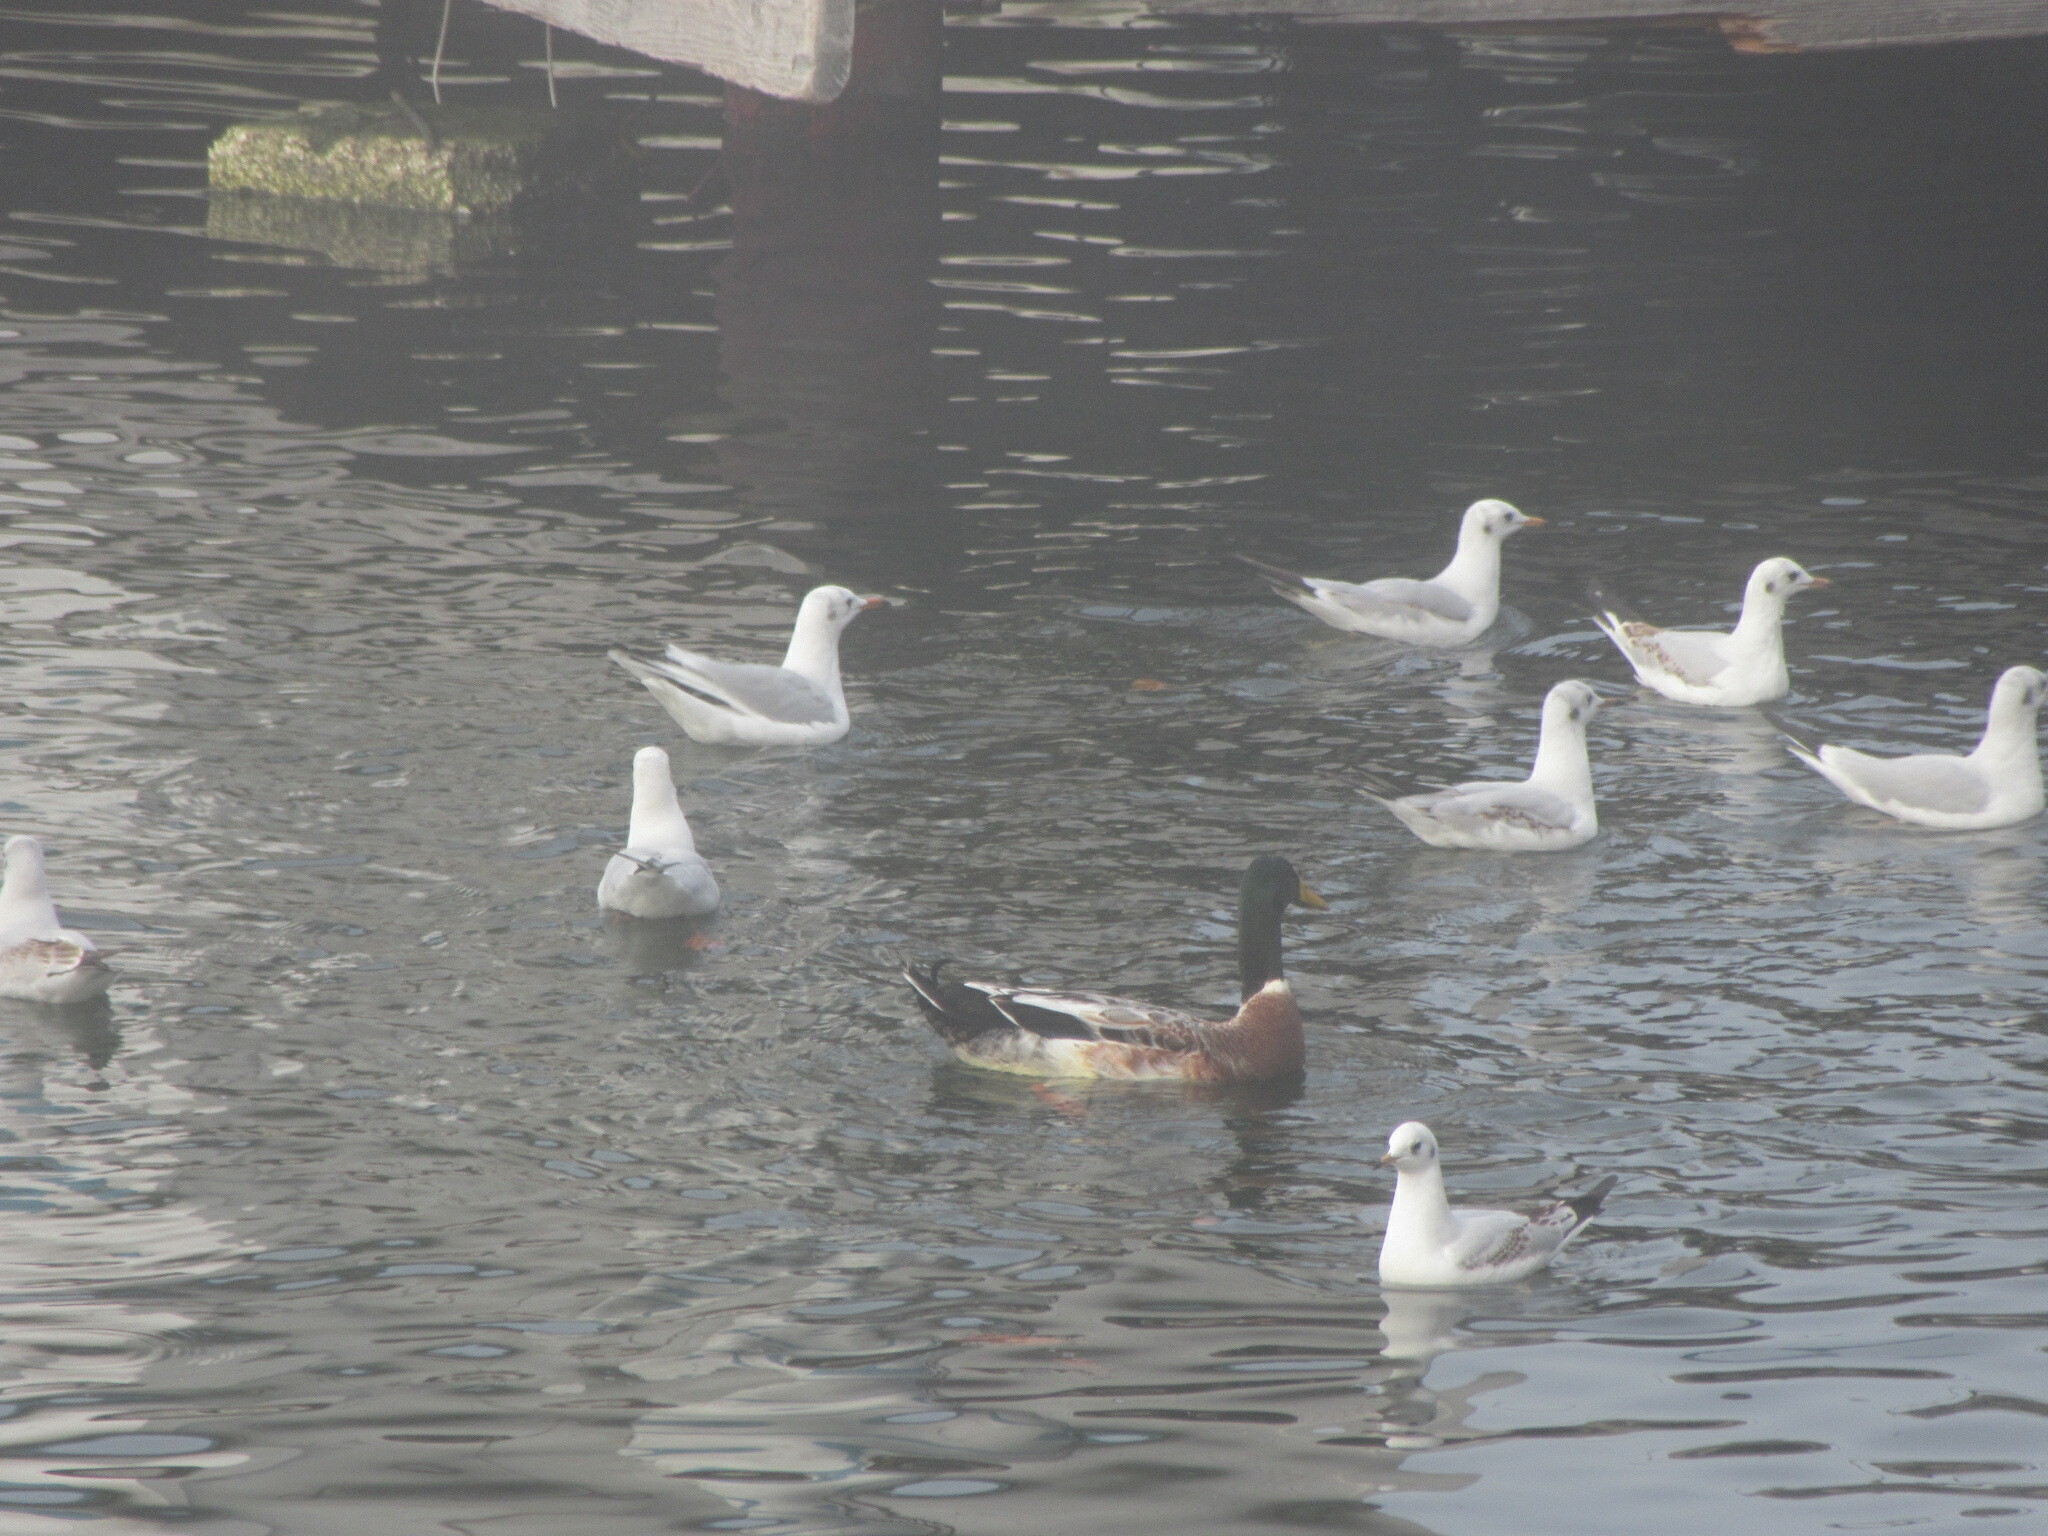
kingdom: Animalia
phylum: Chordata
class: Aves
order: Charadriiformes
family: Laridae
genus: Chroicocephalus
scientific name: Chroicocephalus ridibundus
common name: Black-headed gull
